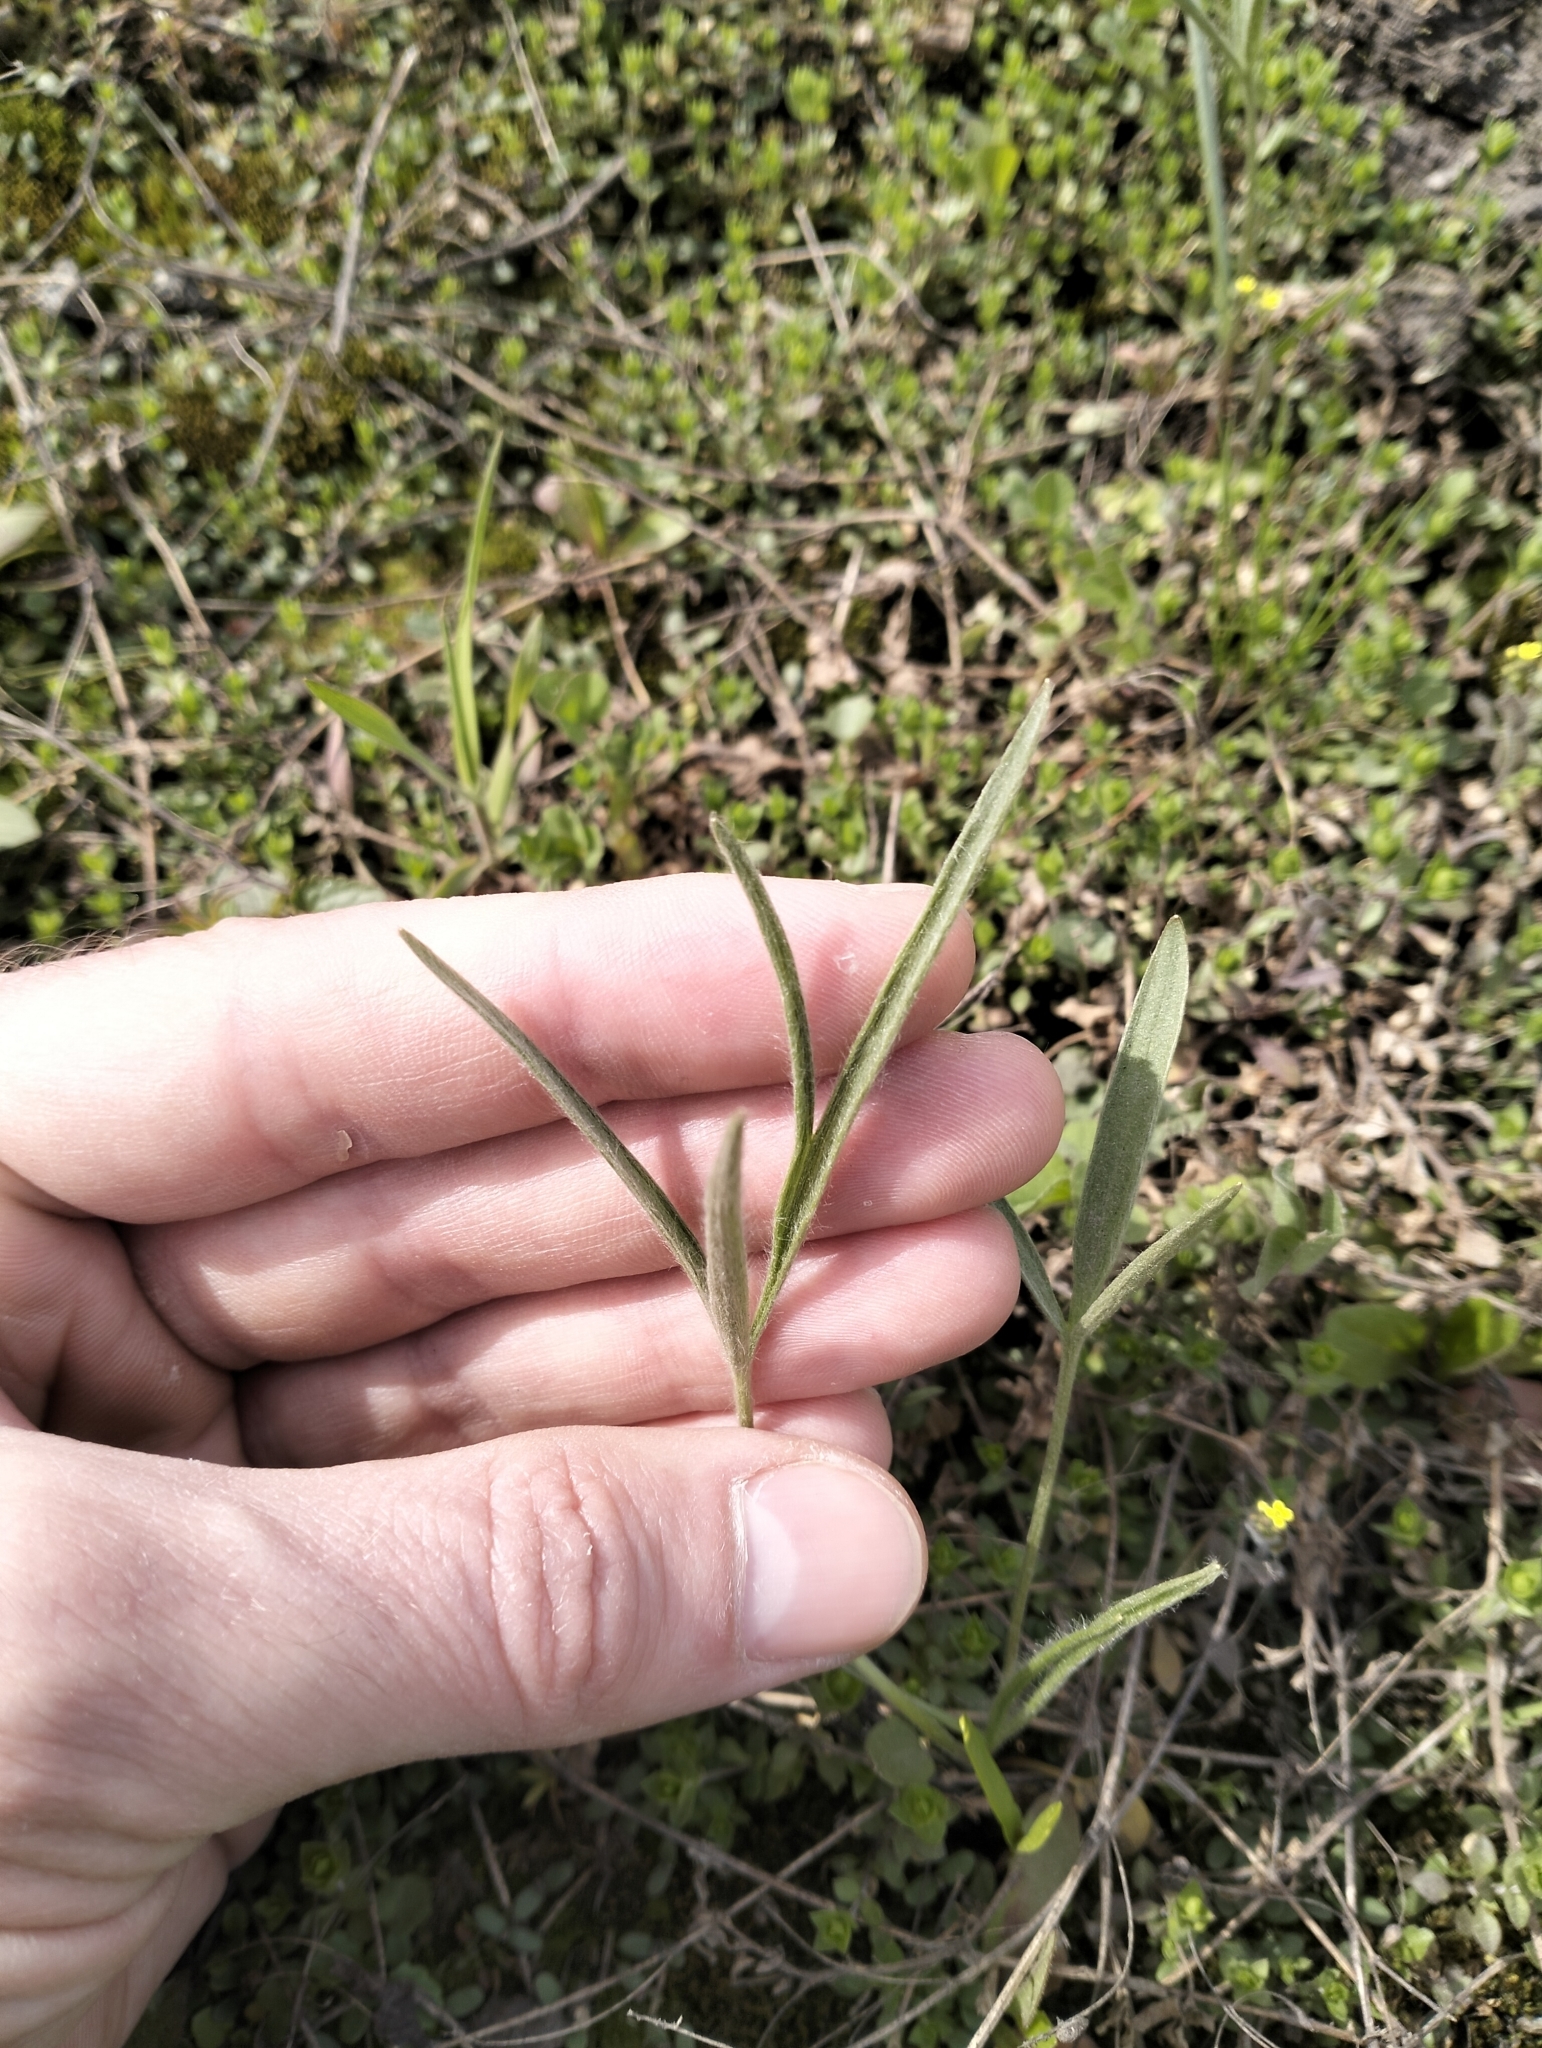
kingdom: Plantae
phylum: Tracheophyta
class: Magnoliopsida
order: Ranunculales
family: Ranunculaceae
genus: Ranunculus
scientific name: Ranunculus illyricus
